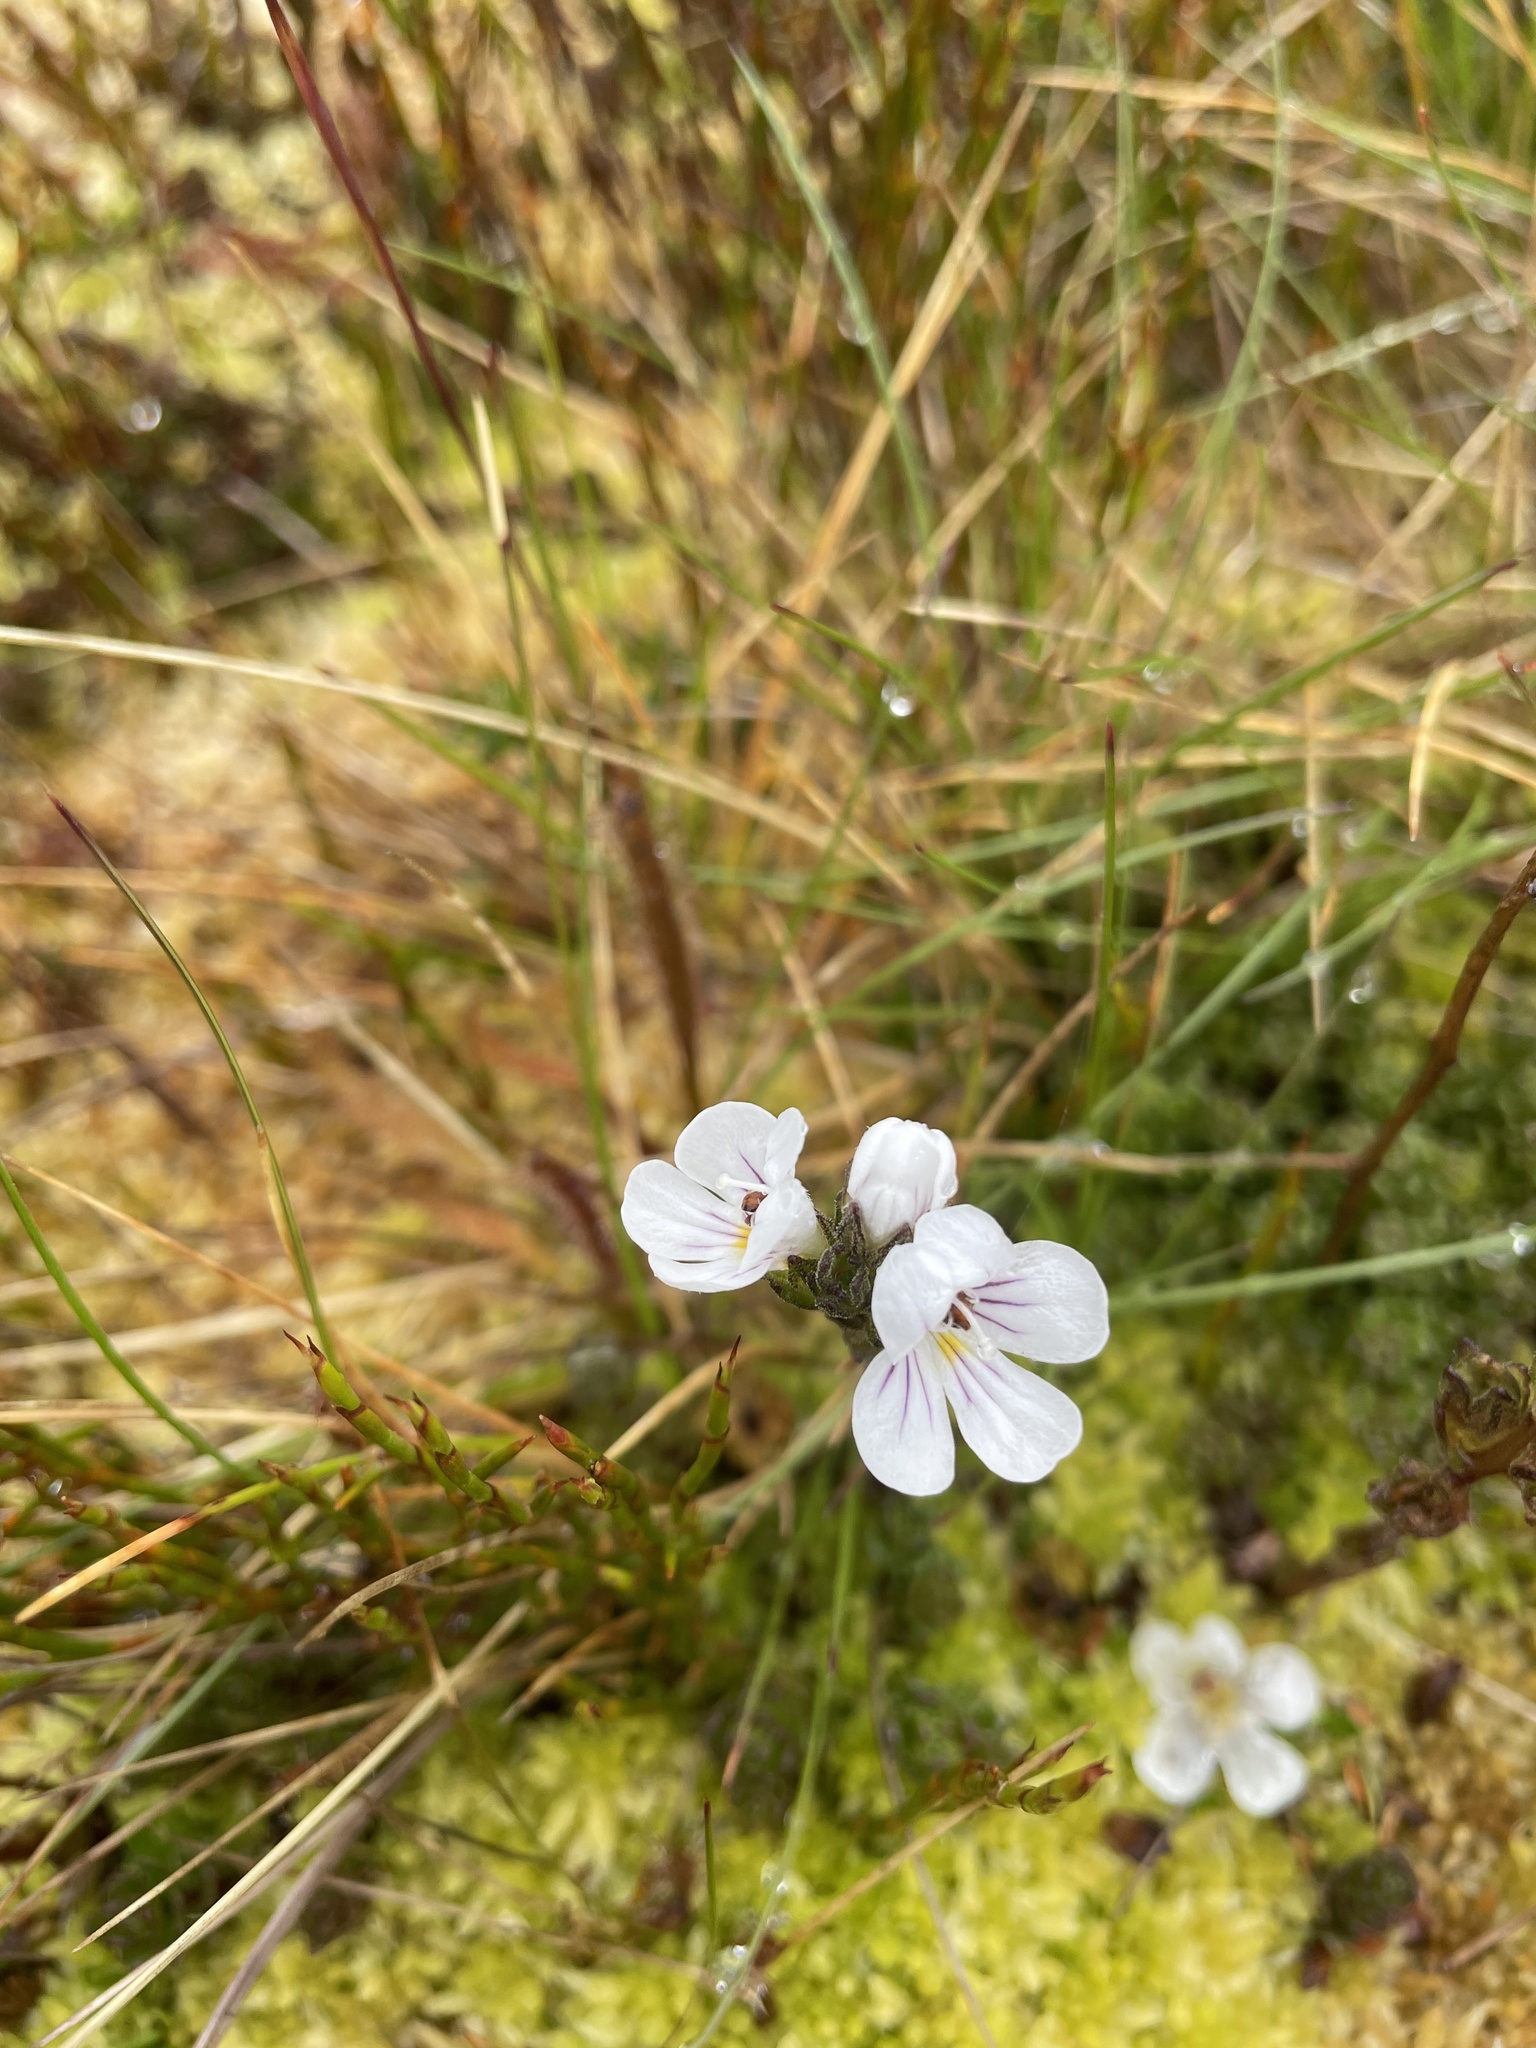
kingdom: Plantae
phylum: Tracheophyta
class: Magnoliopsida
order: Lamiales
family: Orobanchaceae
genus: Euphrasia
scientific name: Euphrasia gibbsiae
